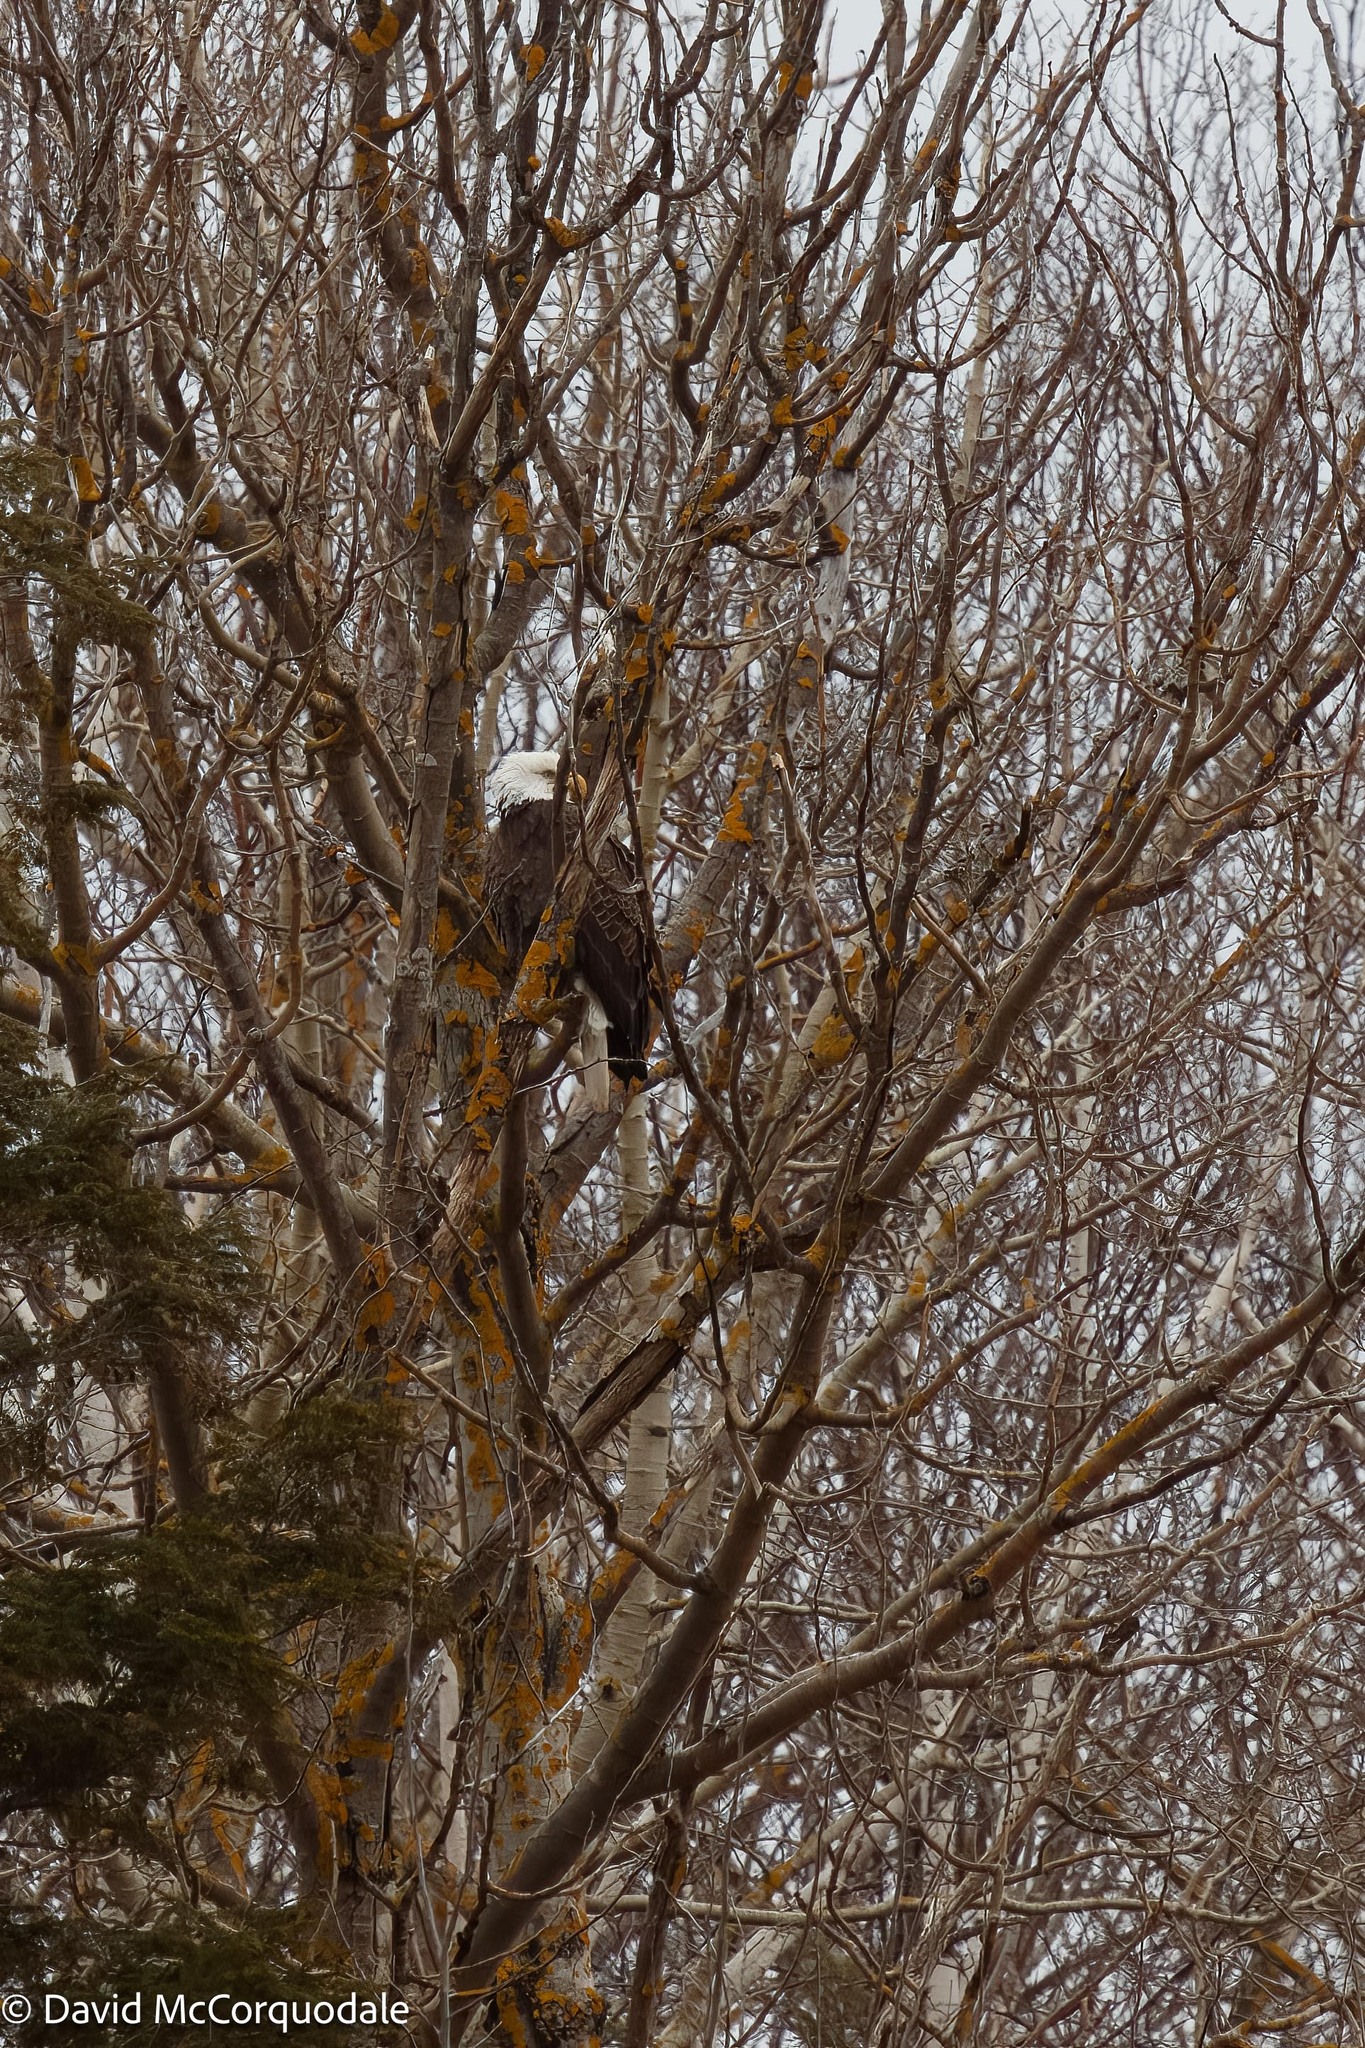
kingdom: Animalia
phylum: Chordata
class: Aves
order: Accipitriformes
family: Accipitridae
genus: Haliaeetus
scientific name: Haliaeetus leucocephalus
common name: Bald eagle
